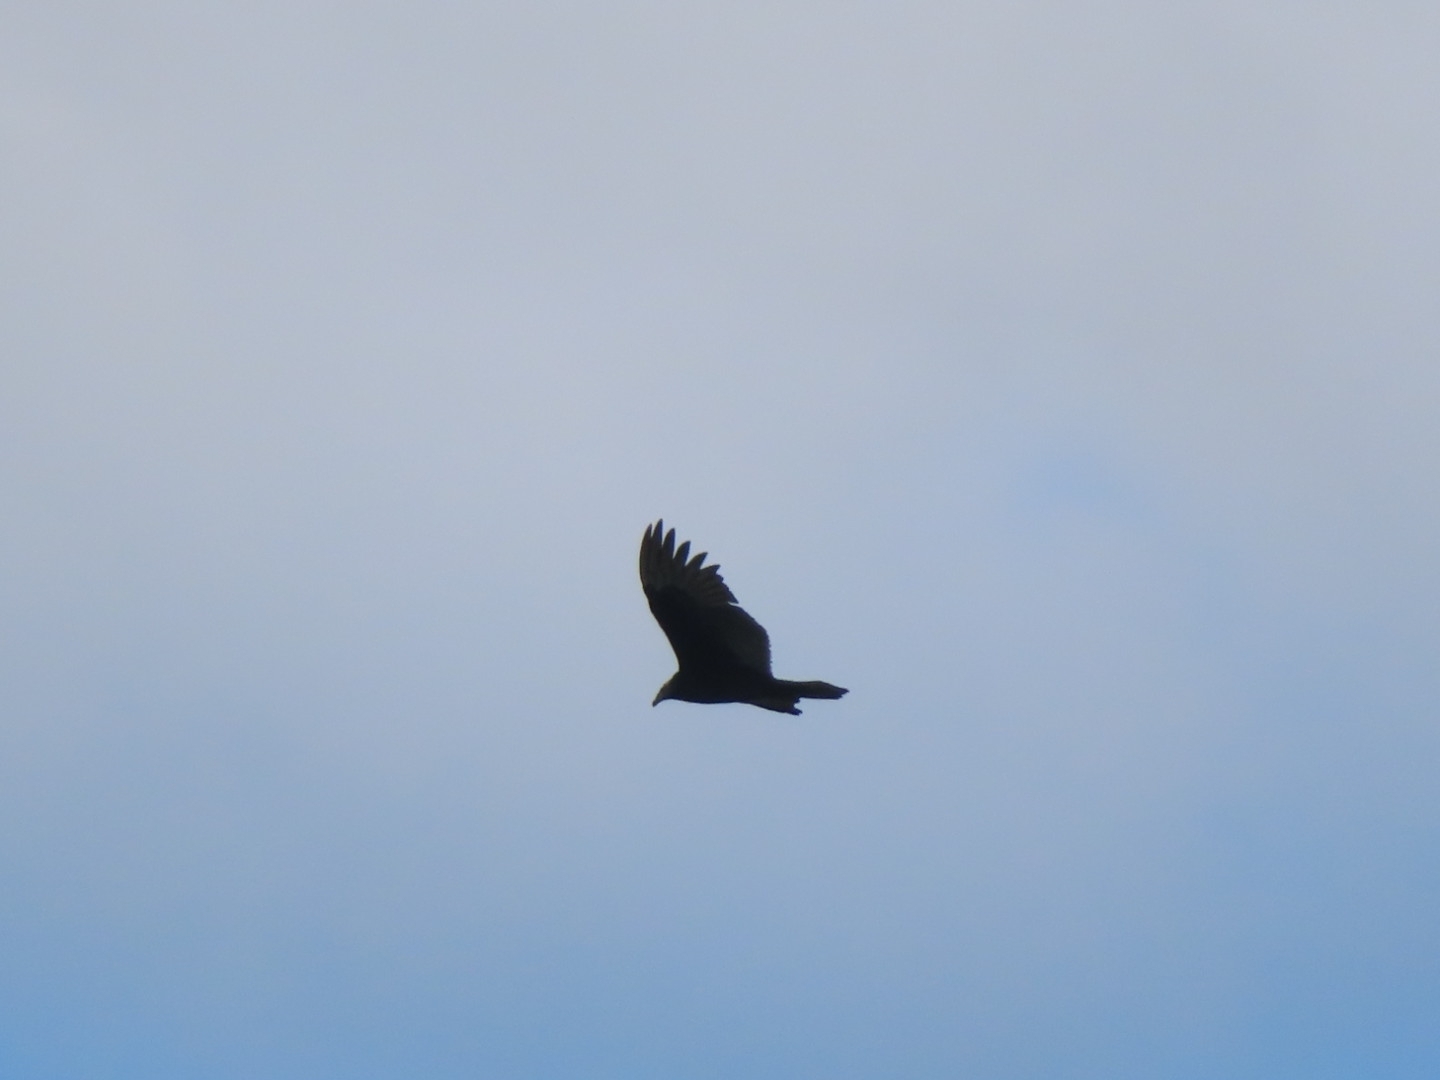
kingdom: Animalia
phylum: Chordata
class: Aves
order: Accipitriformes
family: Cathartidae
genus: Cathartes
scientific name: Cathartes aura
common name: Turkey vulture
